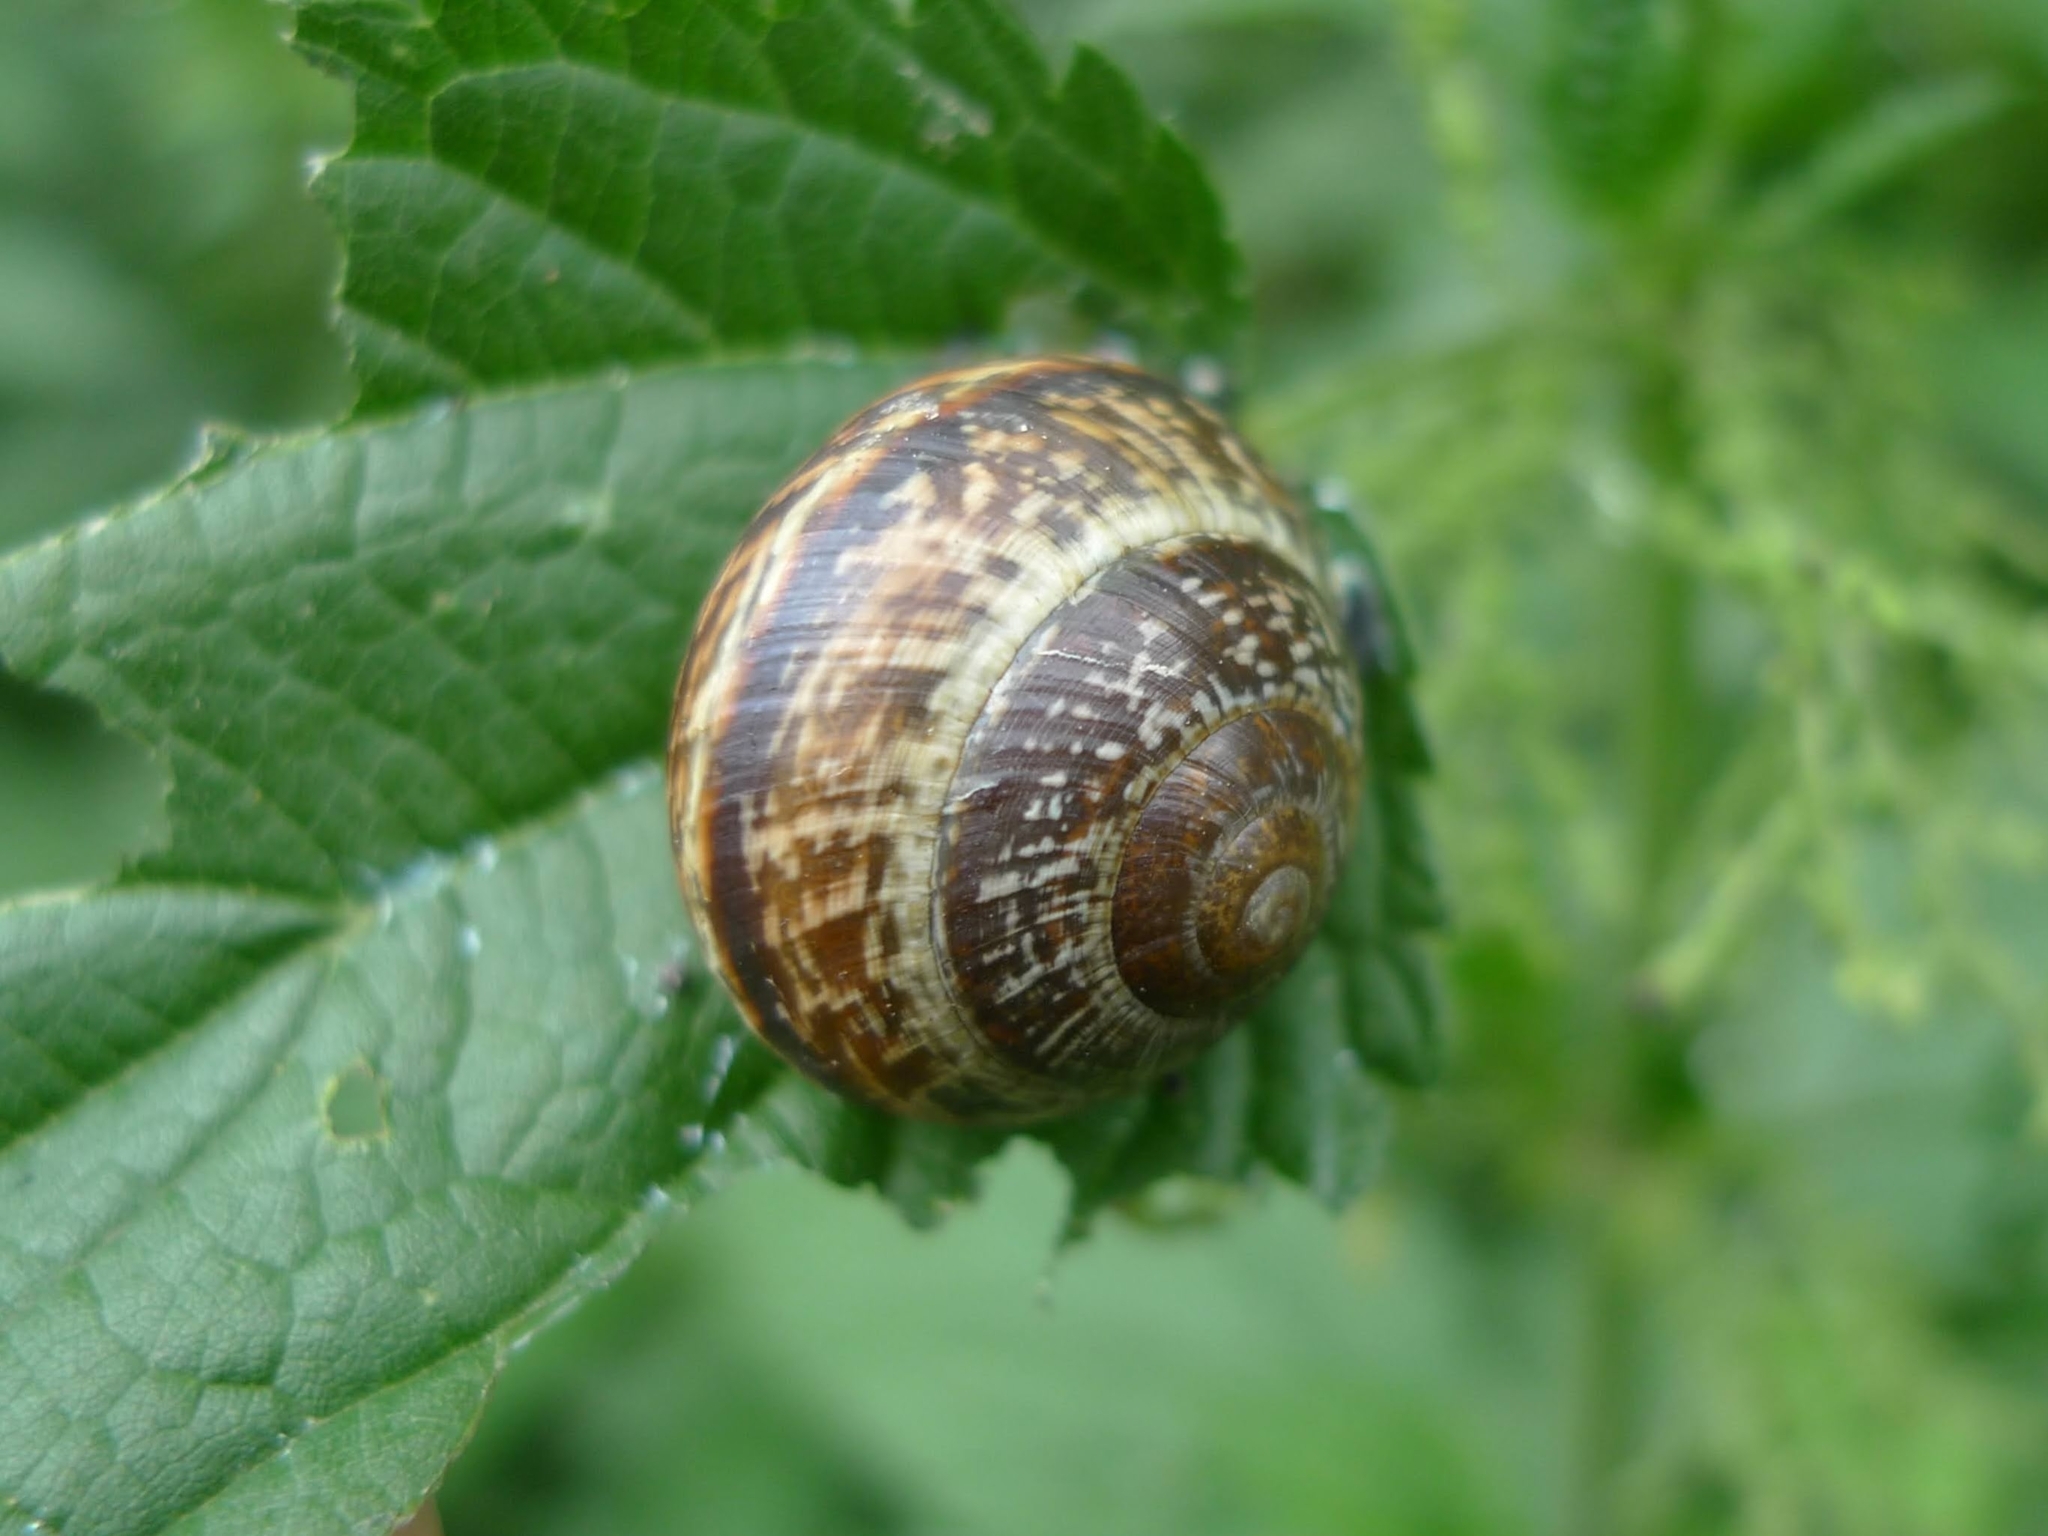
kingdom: Animalia
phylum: Mollusca
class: Gastropoda
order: Stylommatophora
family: Helicidae
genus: Arianta
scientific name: Arianta arbustorum
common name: Copse snail
